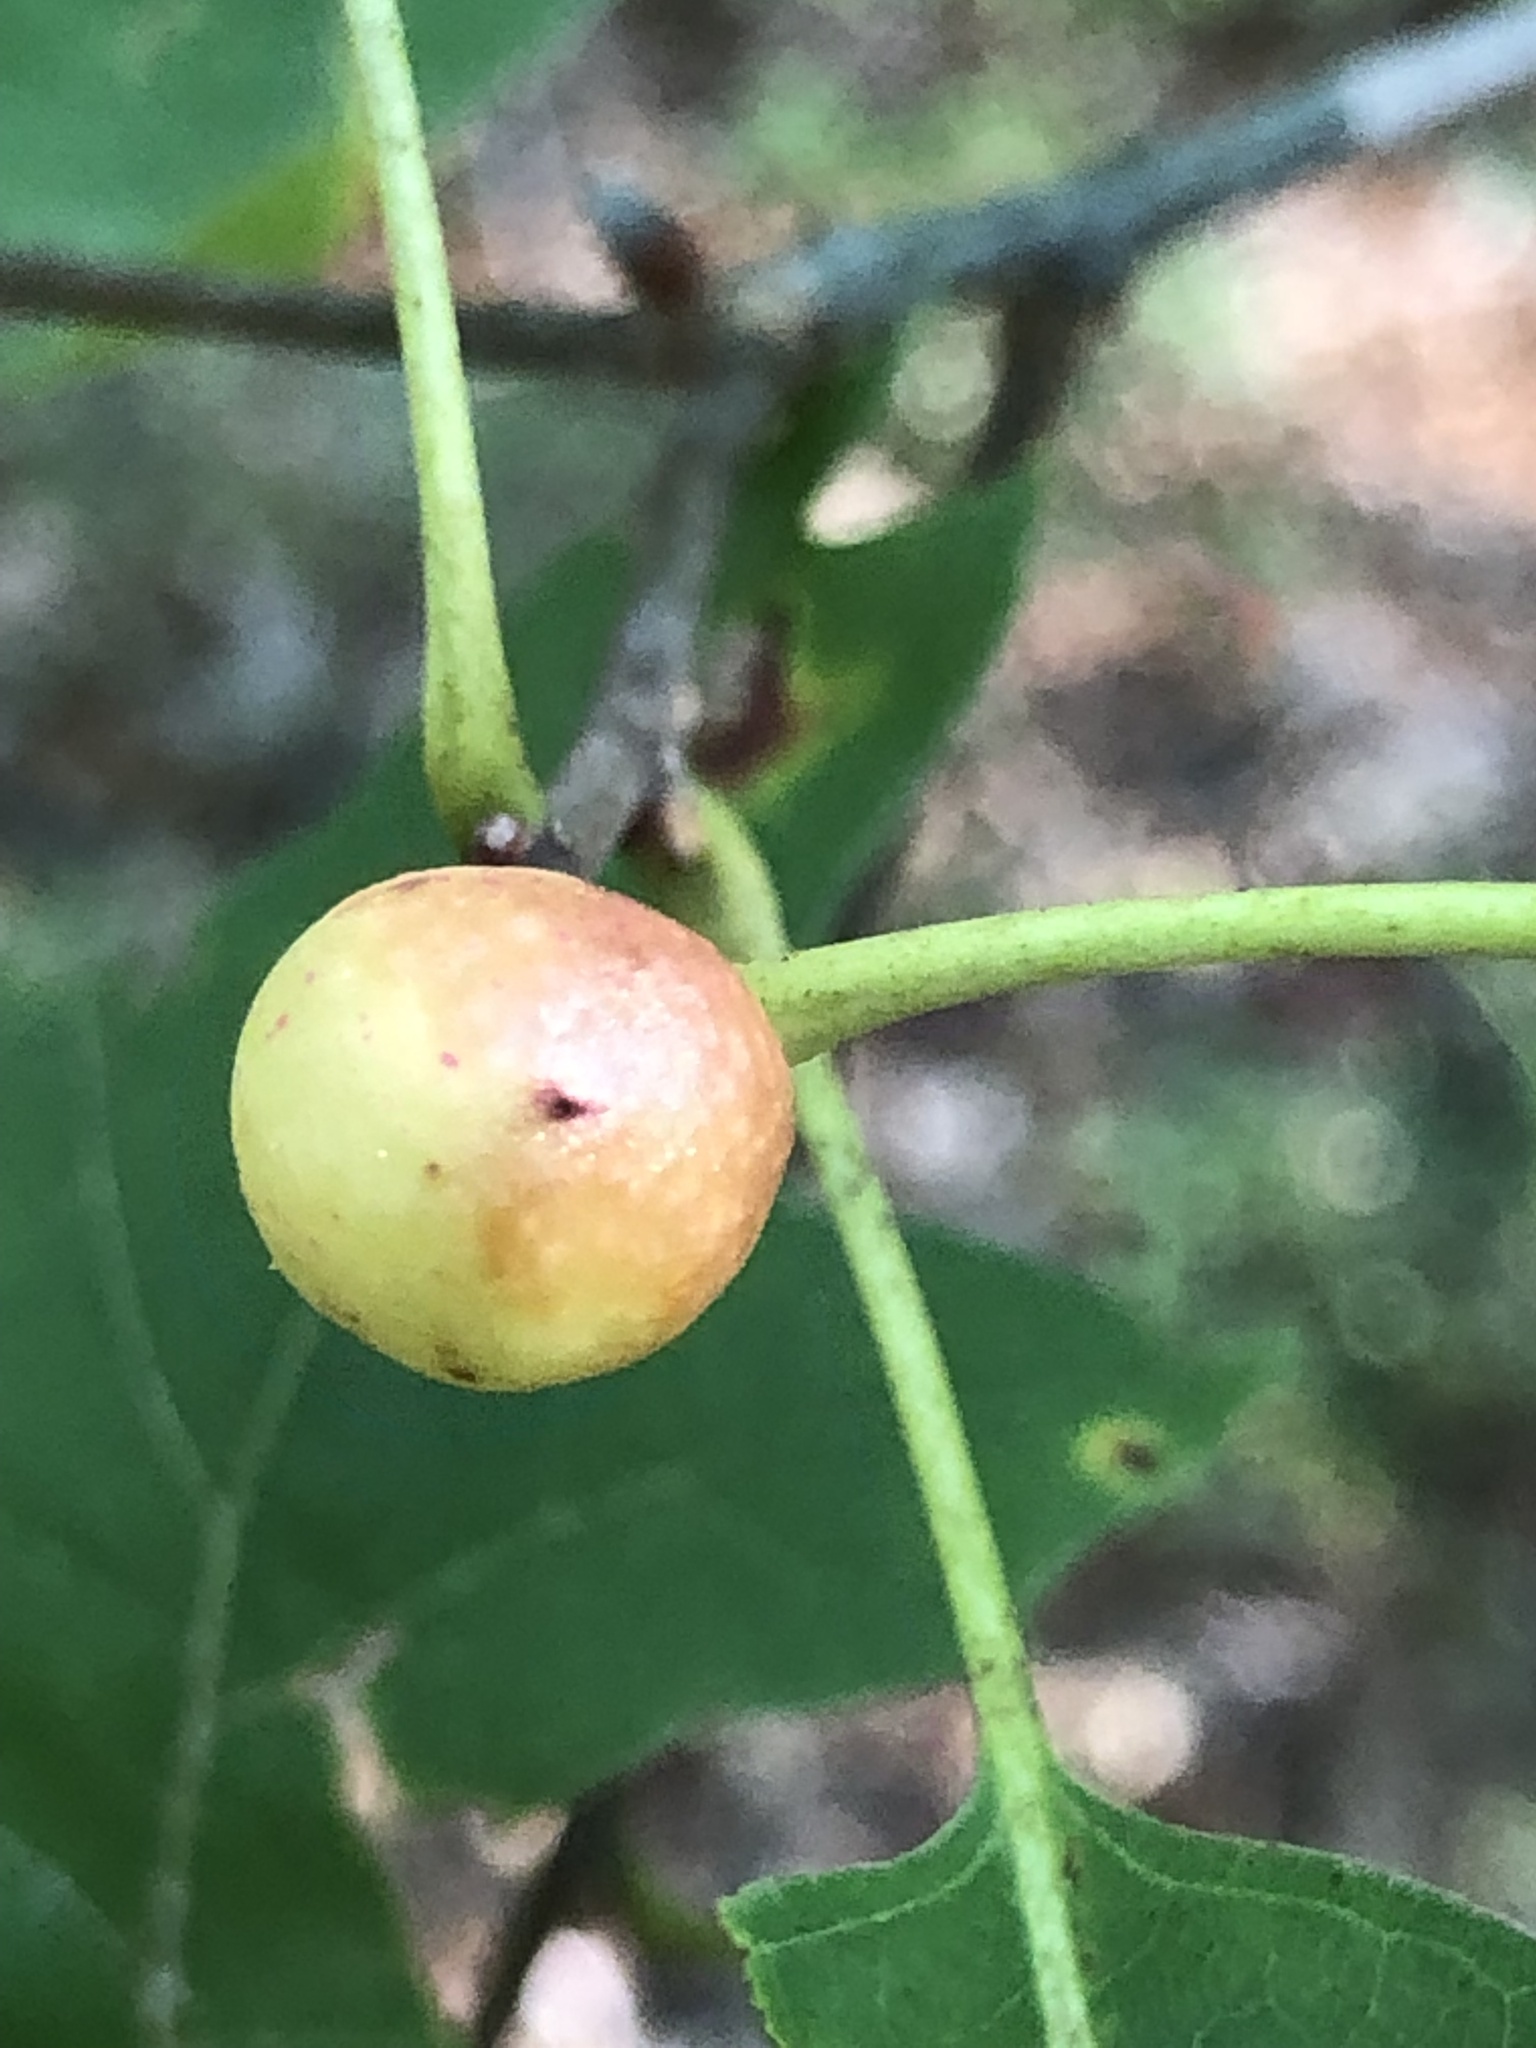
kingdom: Animalia
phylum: Arthropoda
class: Insecta
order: Hymenoptera
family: Cynipidae
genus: Amphibolips
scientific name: Amphibolips
